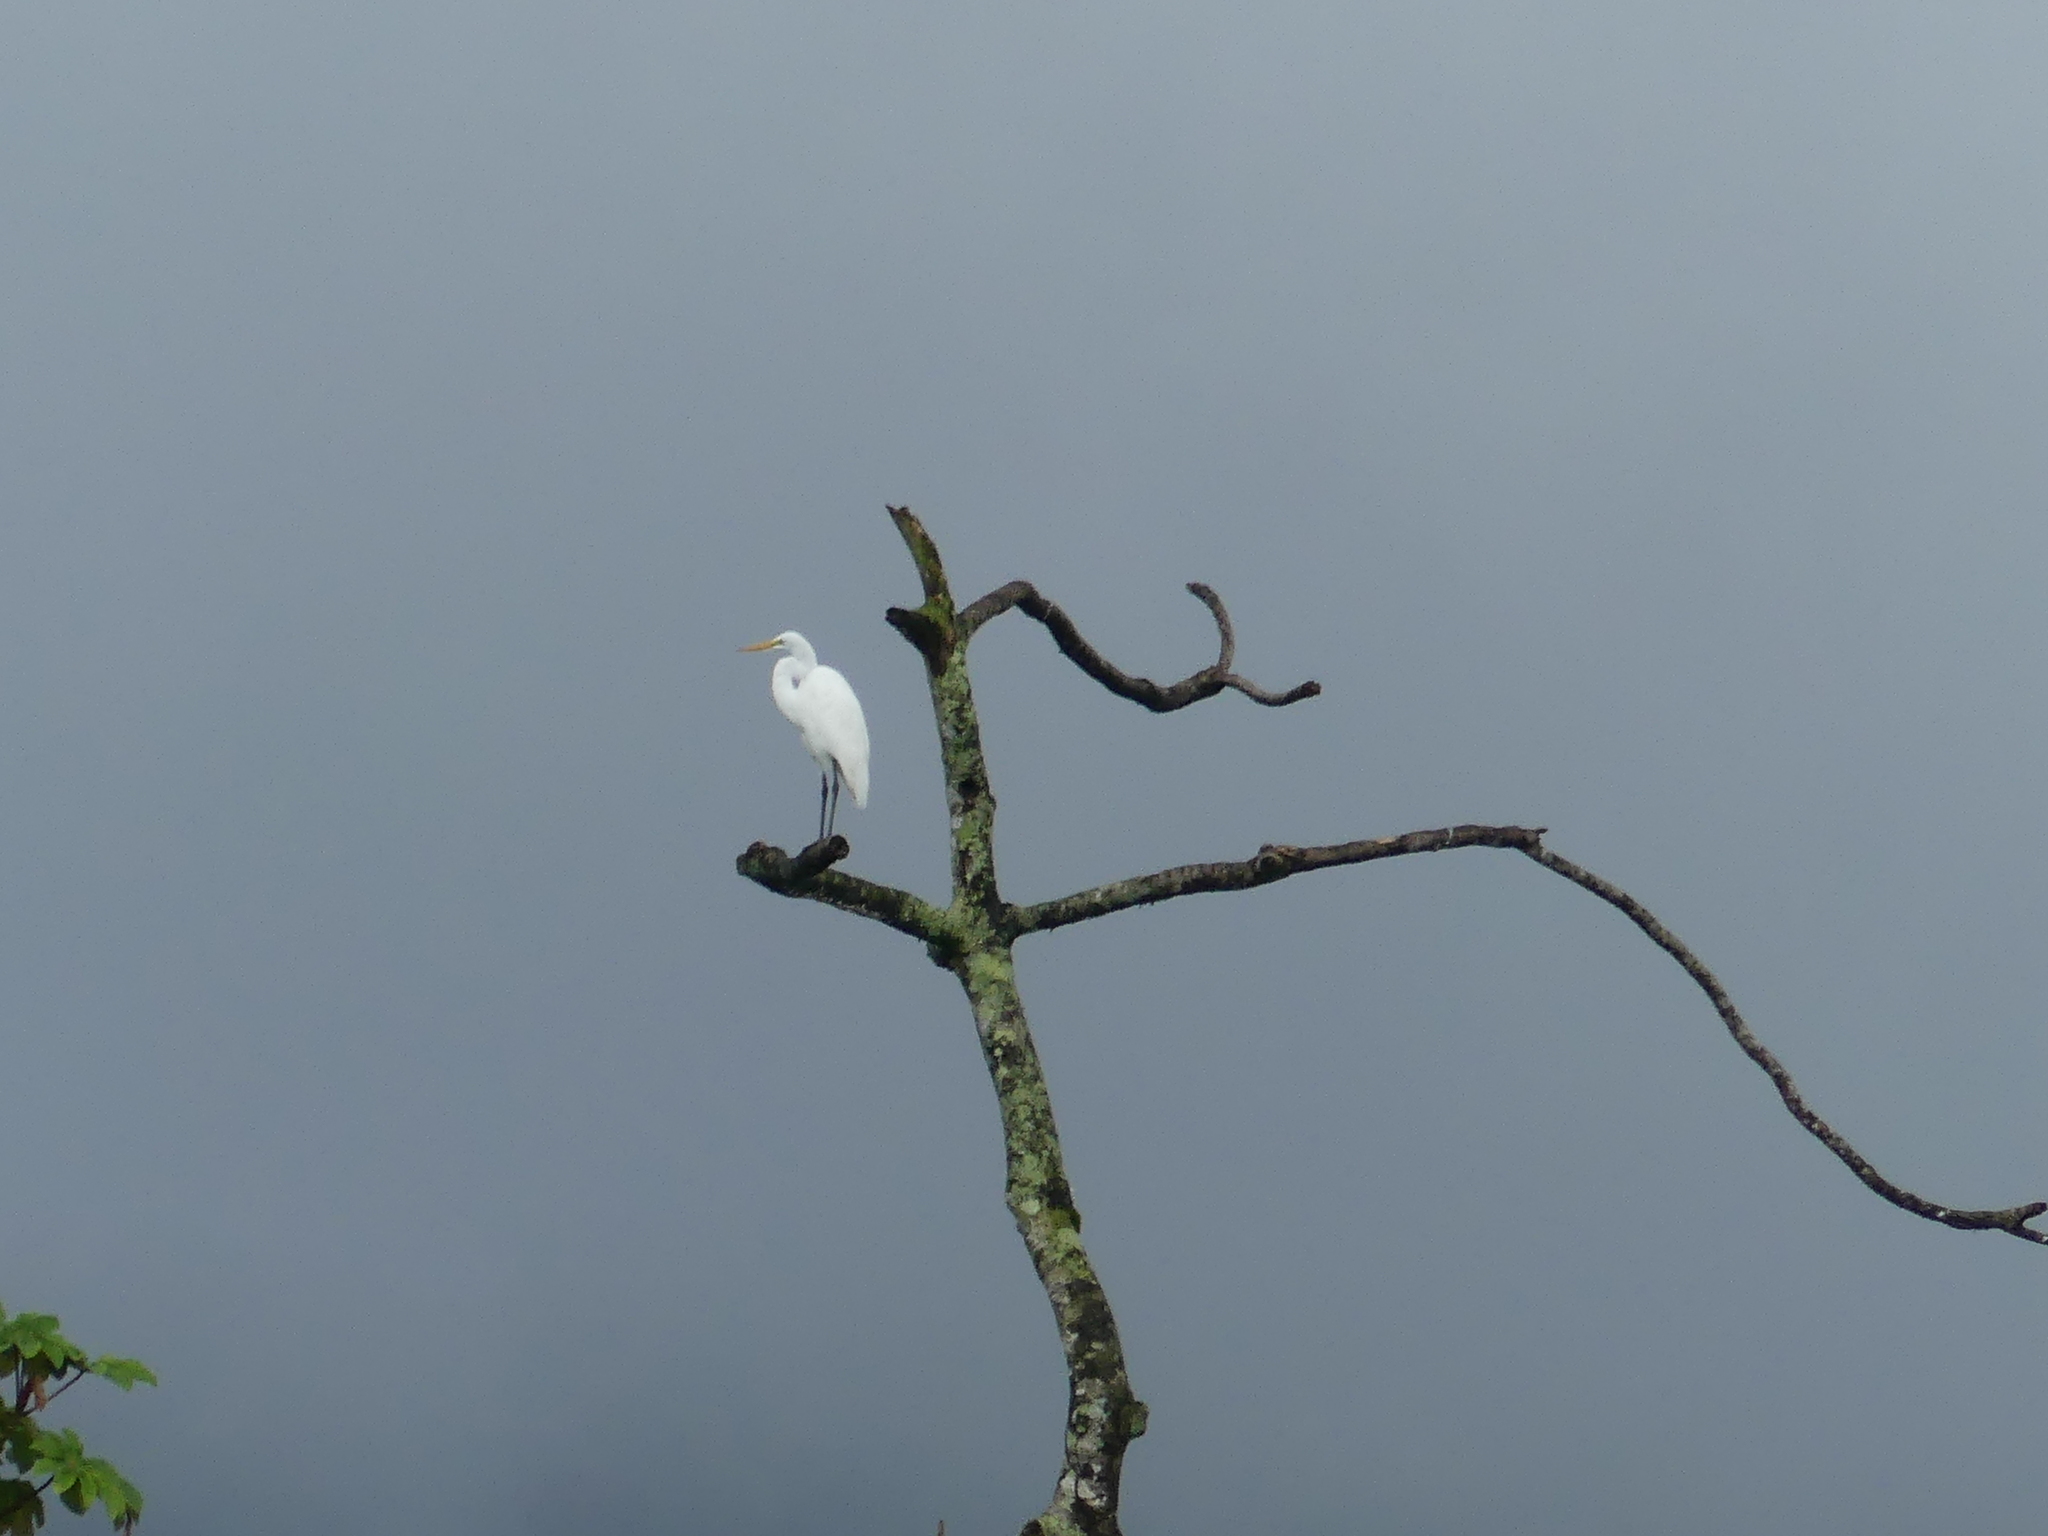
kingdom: Animalia
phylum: Chordata
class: Aves
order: Pelecaniformes
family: Ardeidae
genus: Ardea
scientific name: Ardea alba
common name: Great egret
